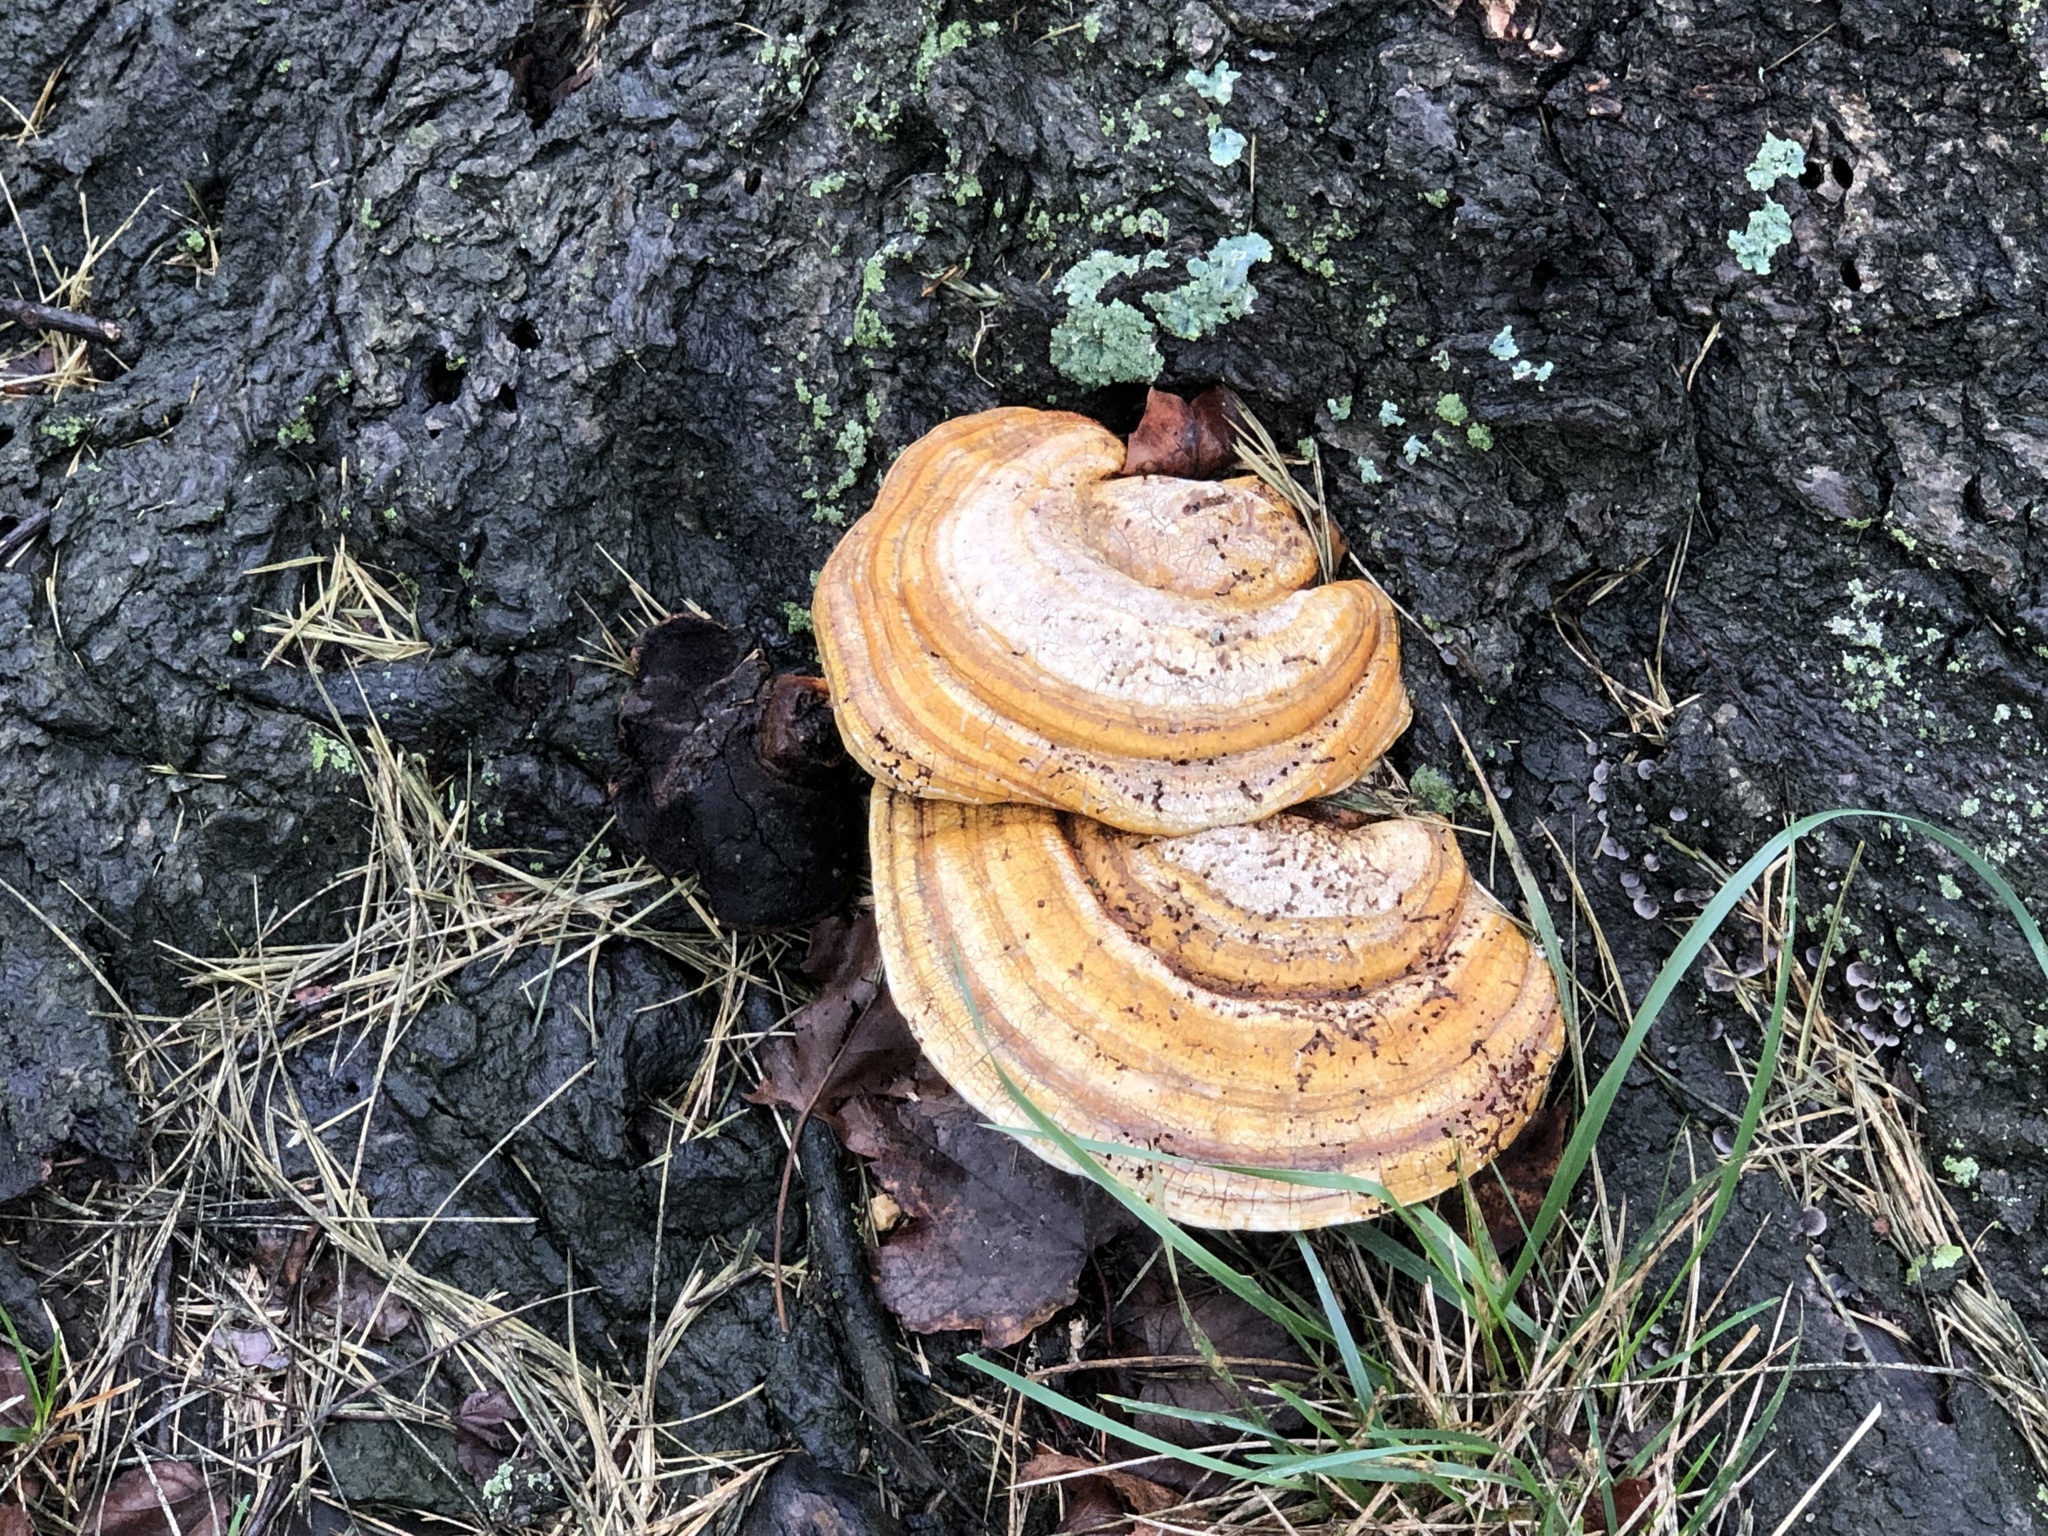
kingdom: Fungi
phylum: Basidiomycota
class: Agaricomycetes
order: Polyporales
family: Polyporaceae
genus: Daedaleopsis
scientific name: Daedaleopsis confragosa
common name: Blushing bracket
